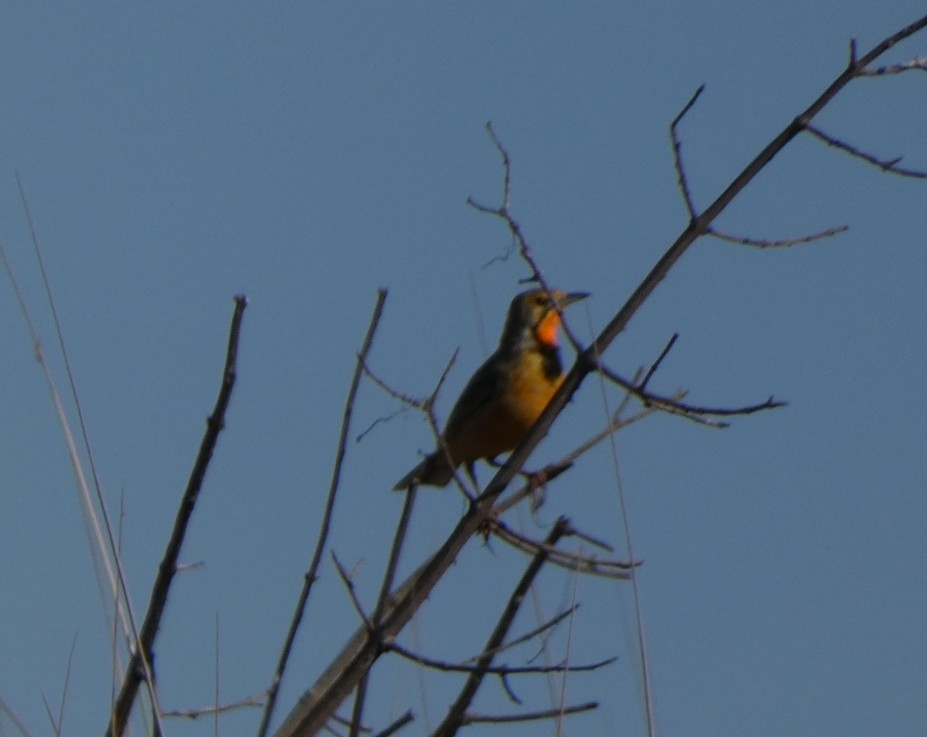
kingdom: Animalia
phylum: Chordata
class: Aves
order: Passeriformes
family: Motacillidae
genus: Macronyx
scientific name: Macronyx capensis
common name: Cape longclaw
